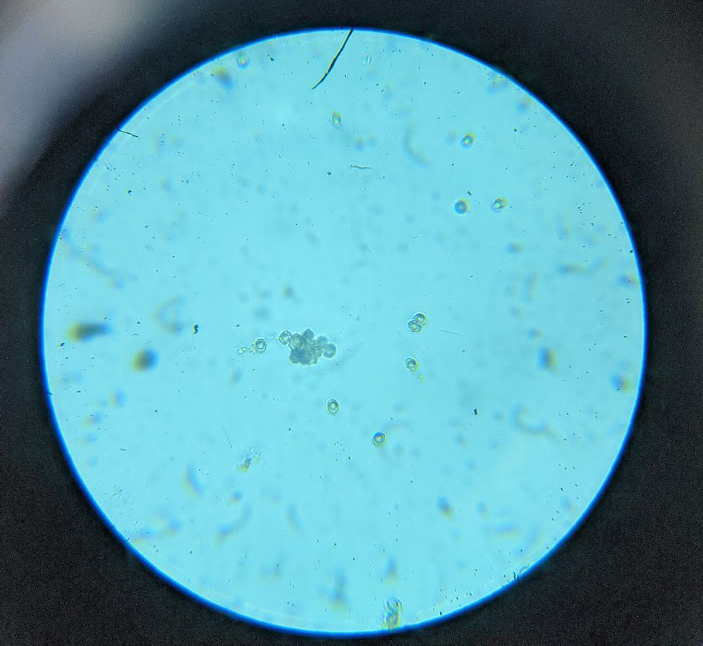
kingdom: Fungi
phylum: Basidiomycota
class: Agaricomycetes
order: Russulales
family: Russulaceae
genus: Russula
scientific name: Russula vinaceocuticulata
